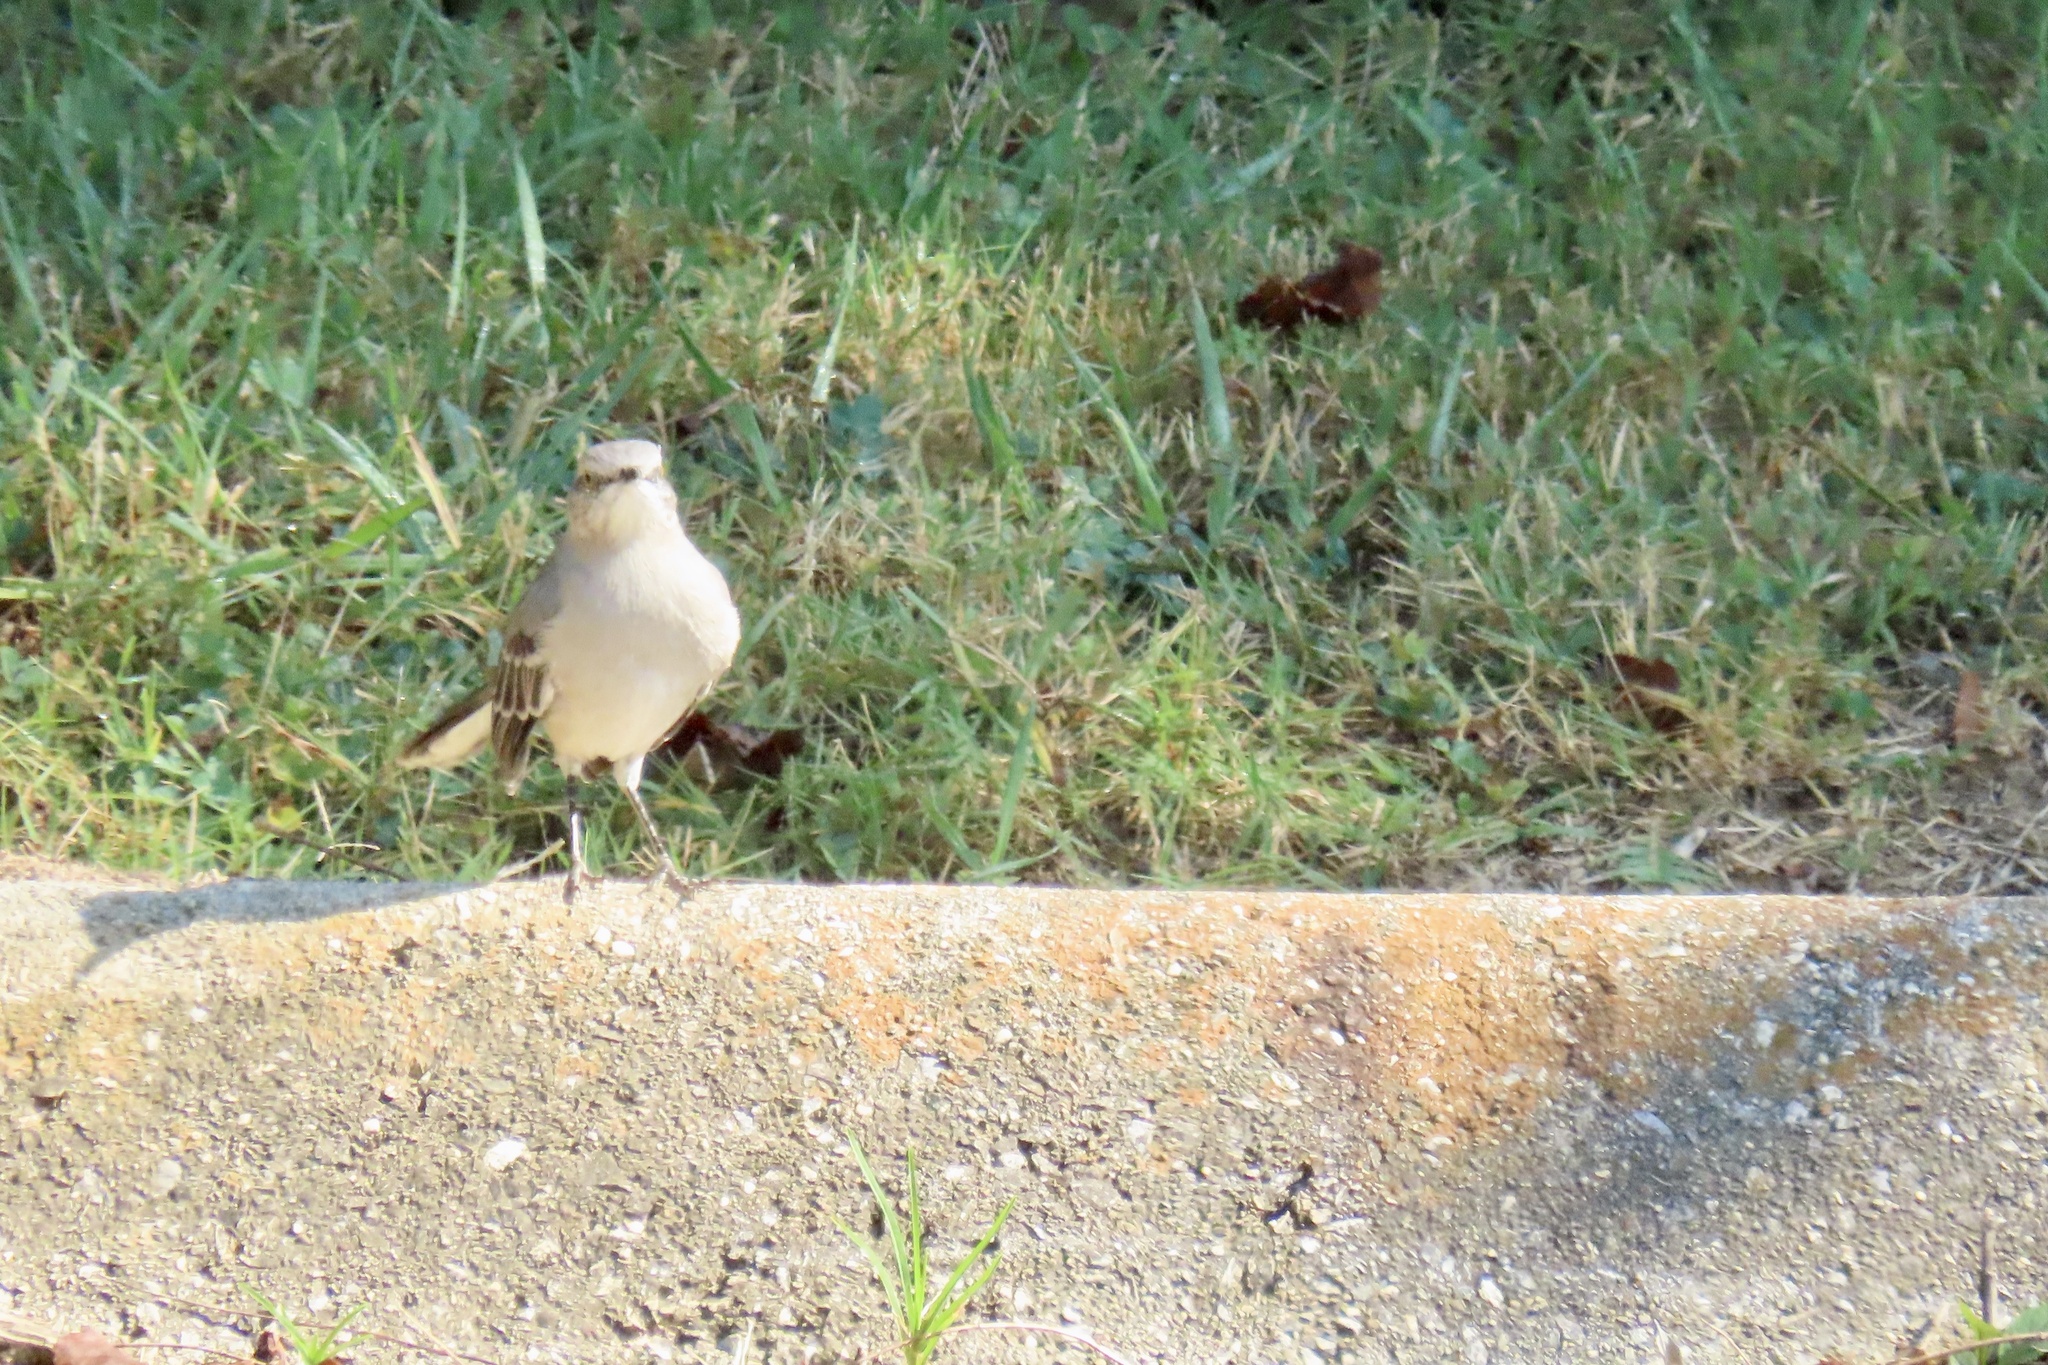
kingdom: Animalia
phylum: Chordata
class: Aves
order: Passeriformes
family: Mimidae
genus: Mimus
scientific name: Mimus polyglottos
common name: Northern mockingbird
